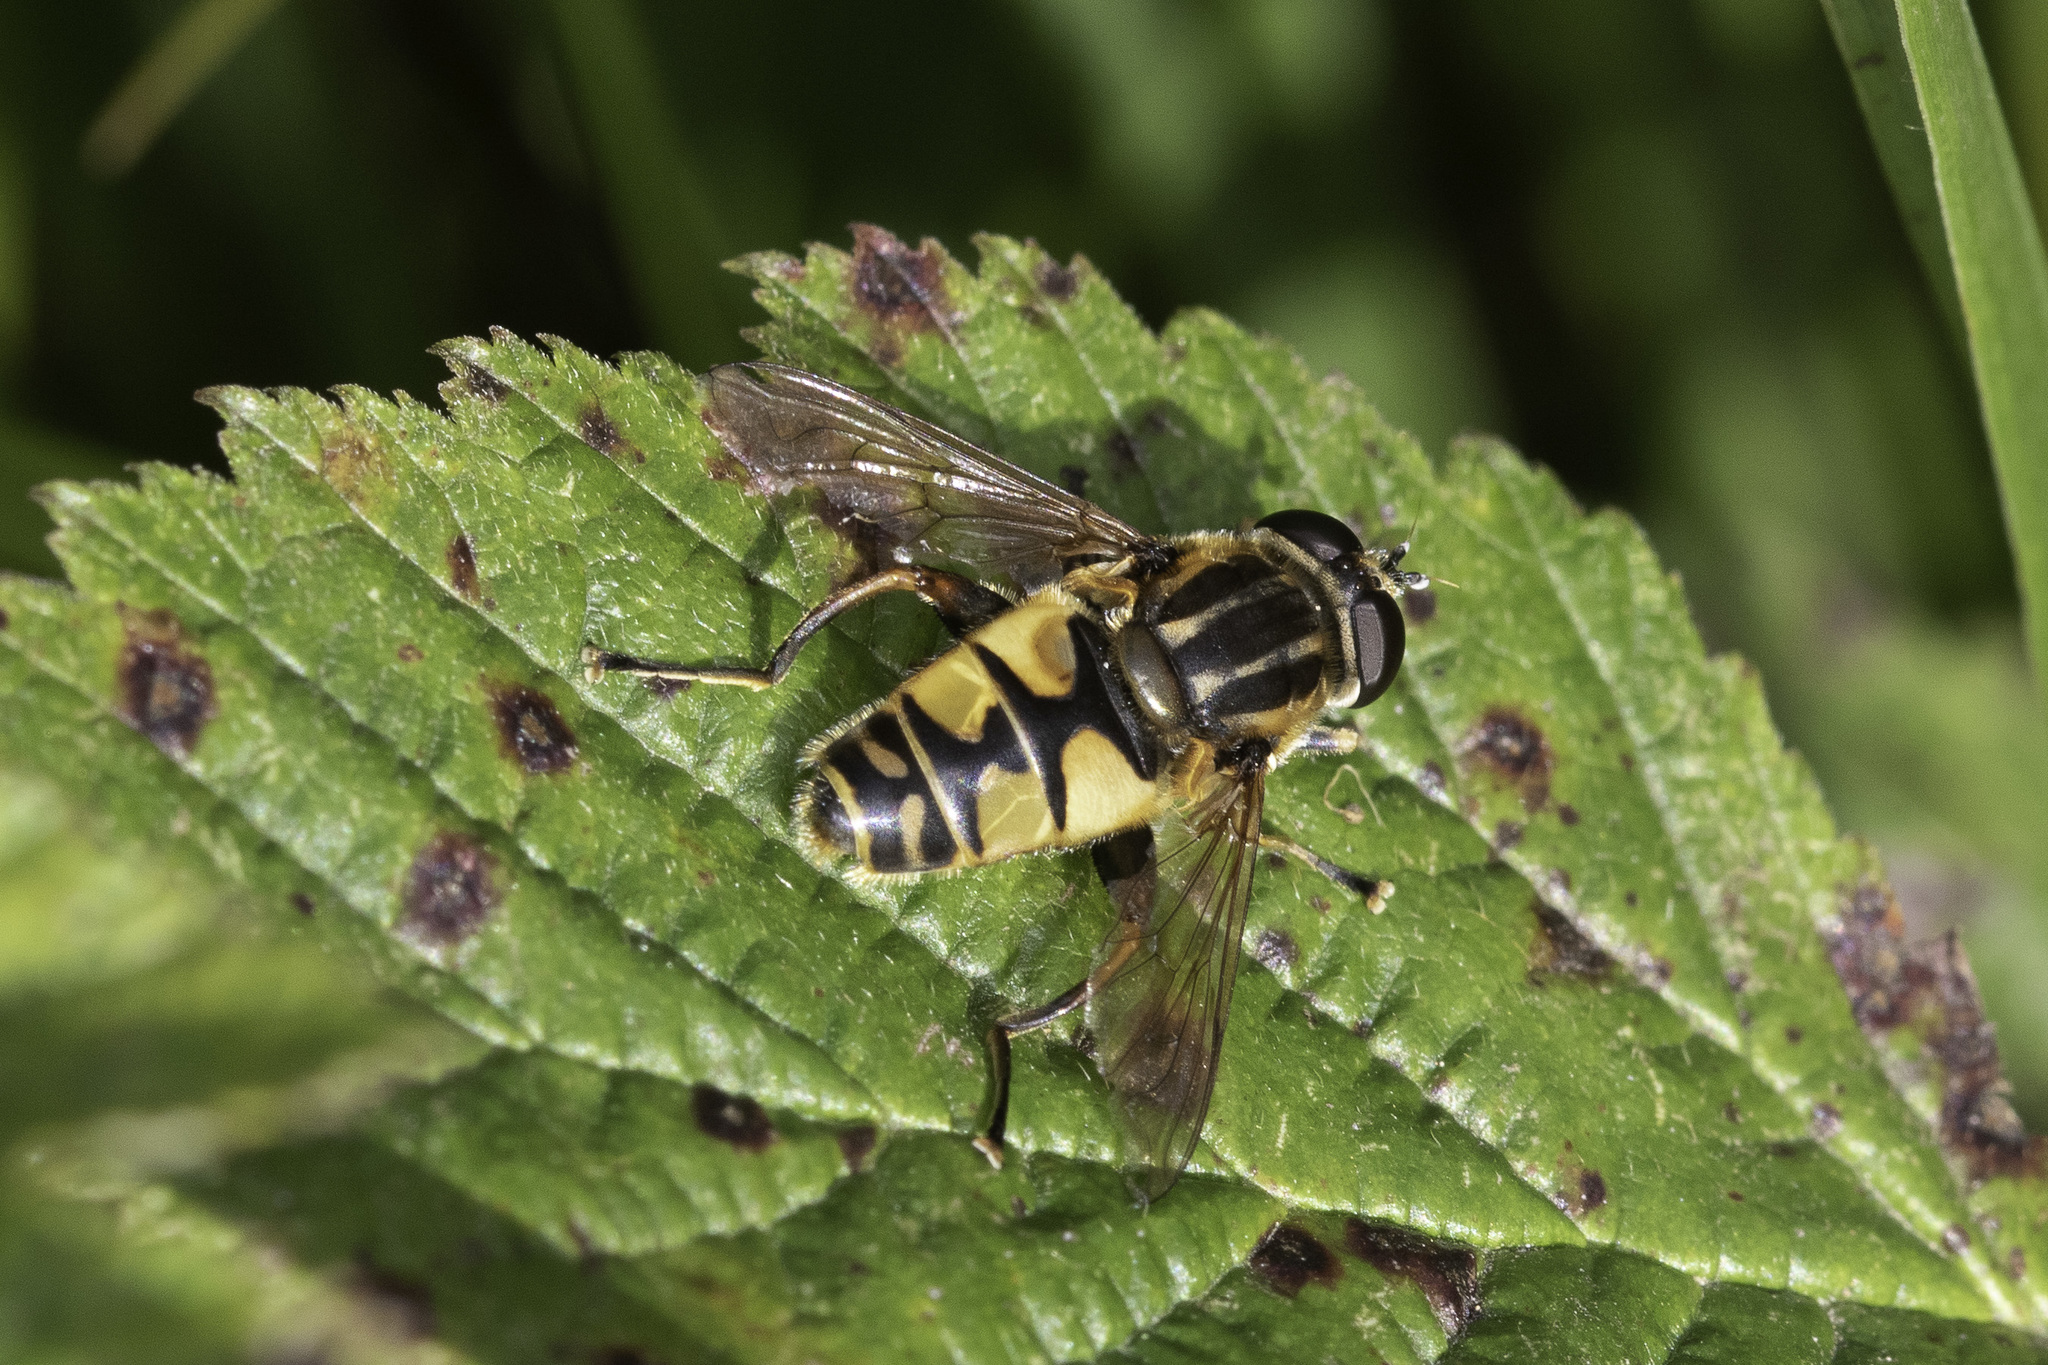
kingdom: Animalia
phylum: Arthropoda
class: Insecta
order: Diptera
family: Syrphidae
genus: Helophilus
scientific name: Helophilus pendulus
